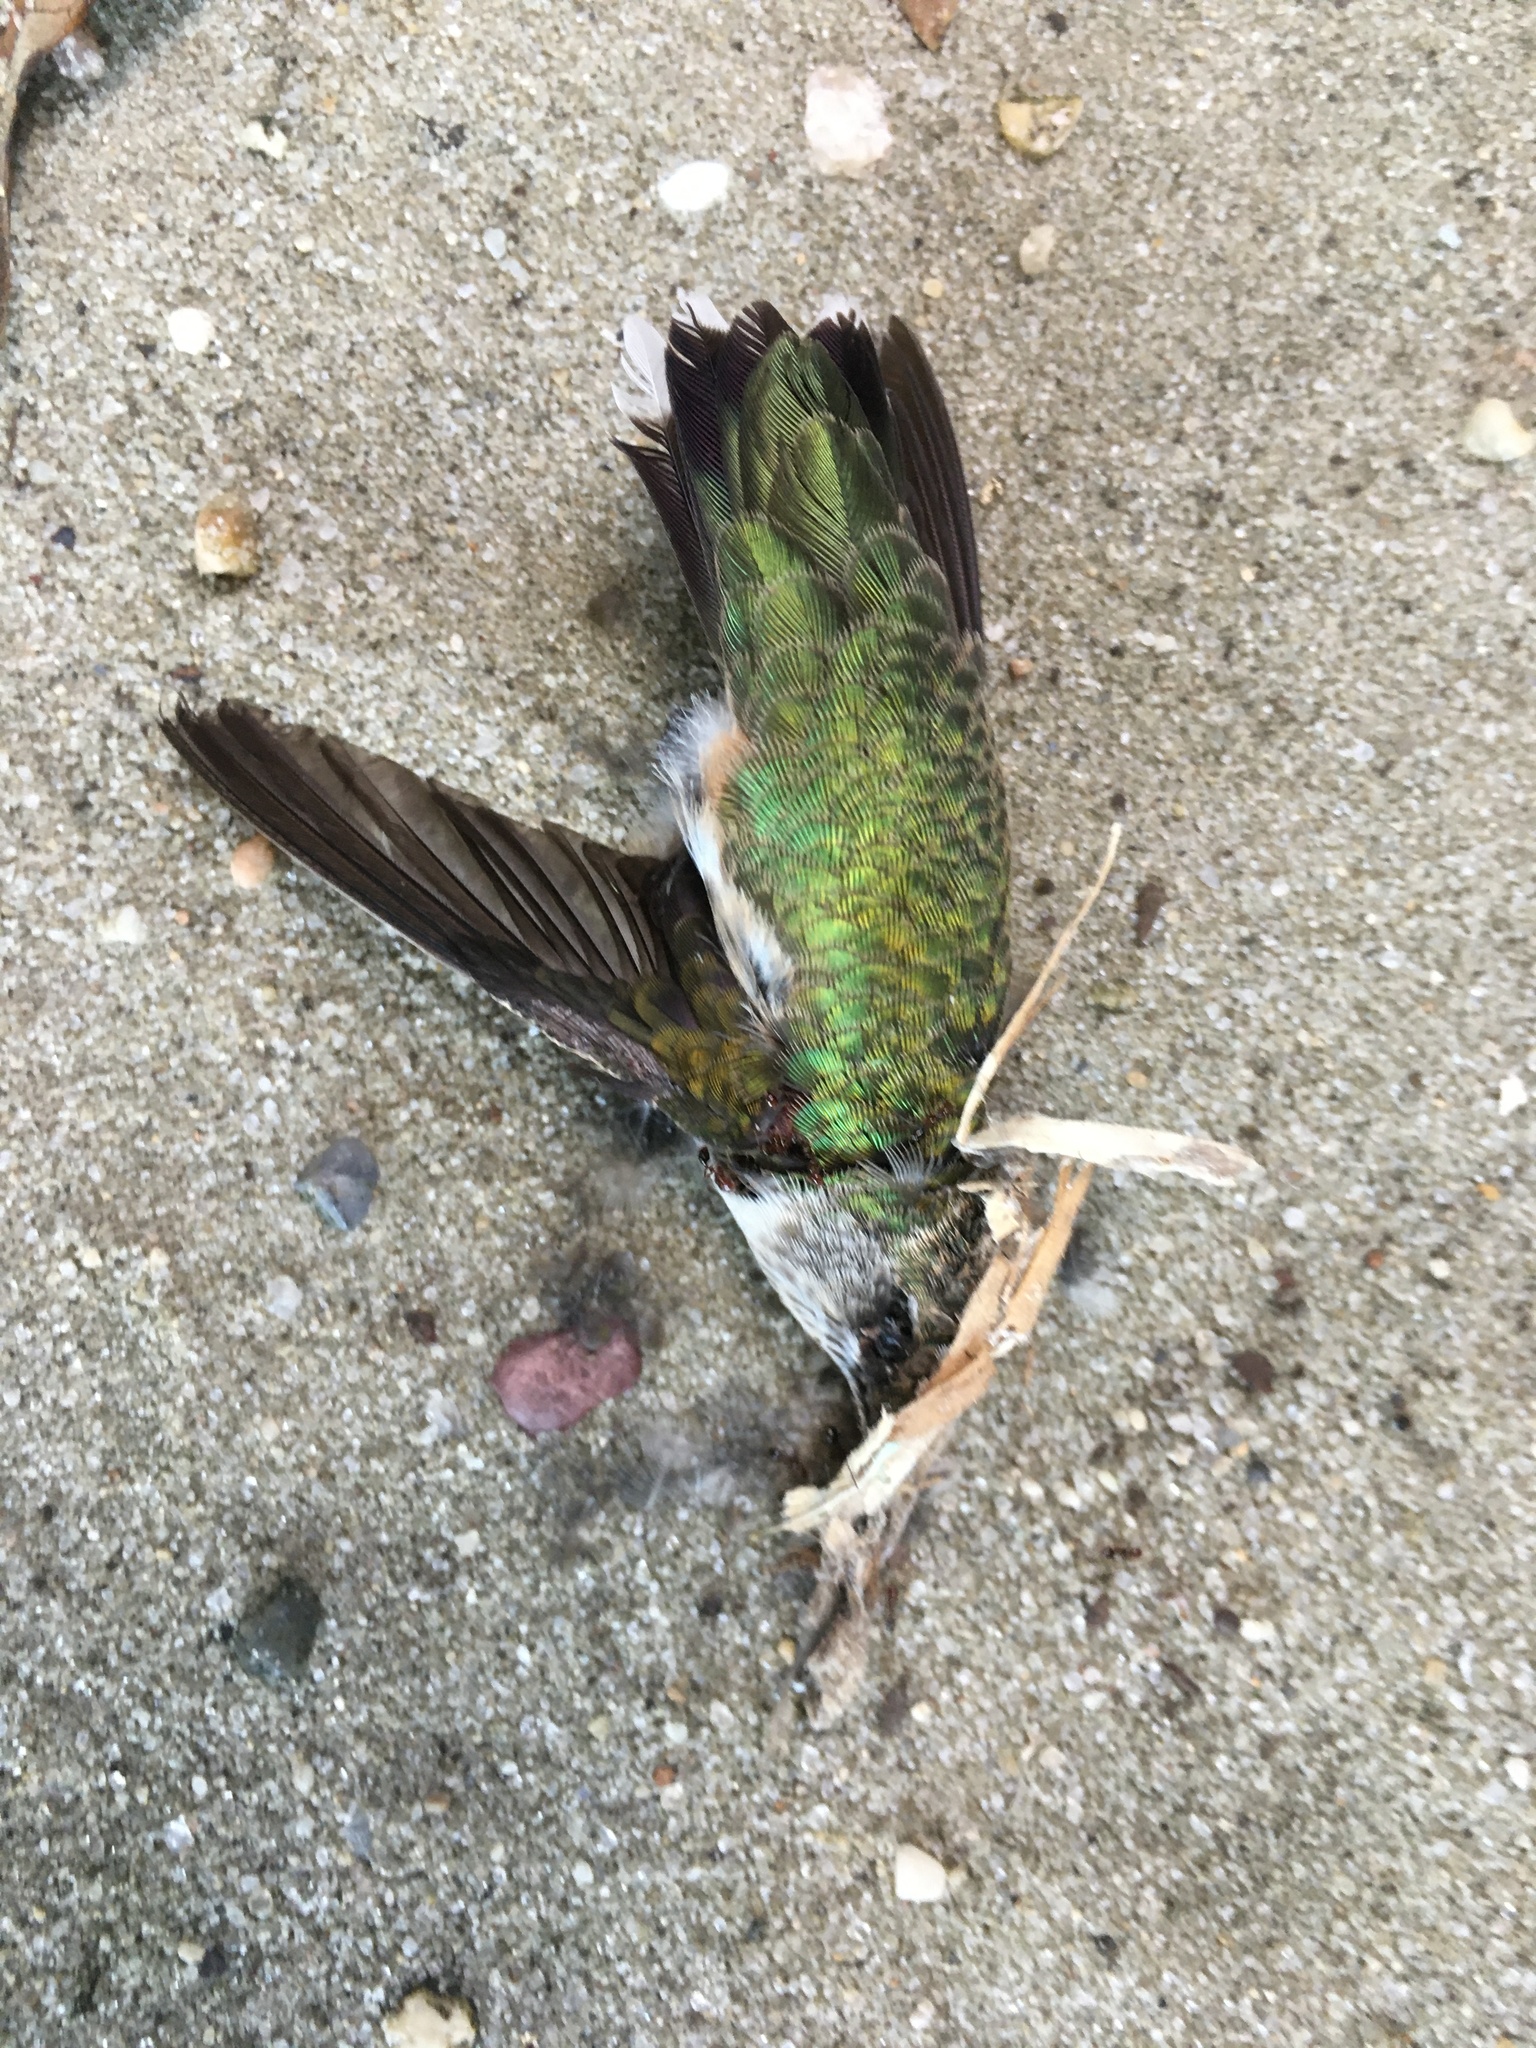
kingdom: Animalia
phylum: Chordata
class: Aves
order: Apodiformes
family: Trochilidae
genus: Archilochus
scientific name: Archilochus colubris
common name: Ruby-throated hummingbird
